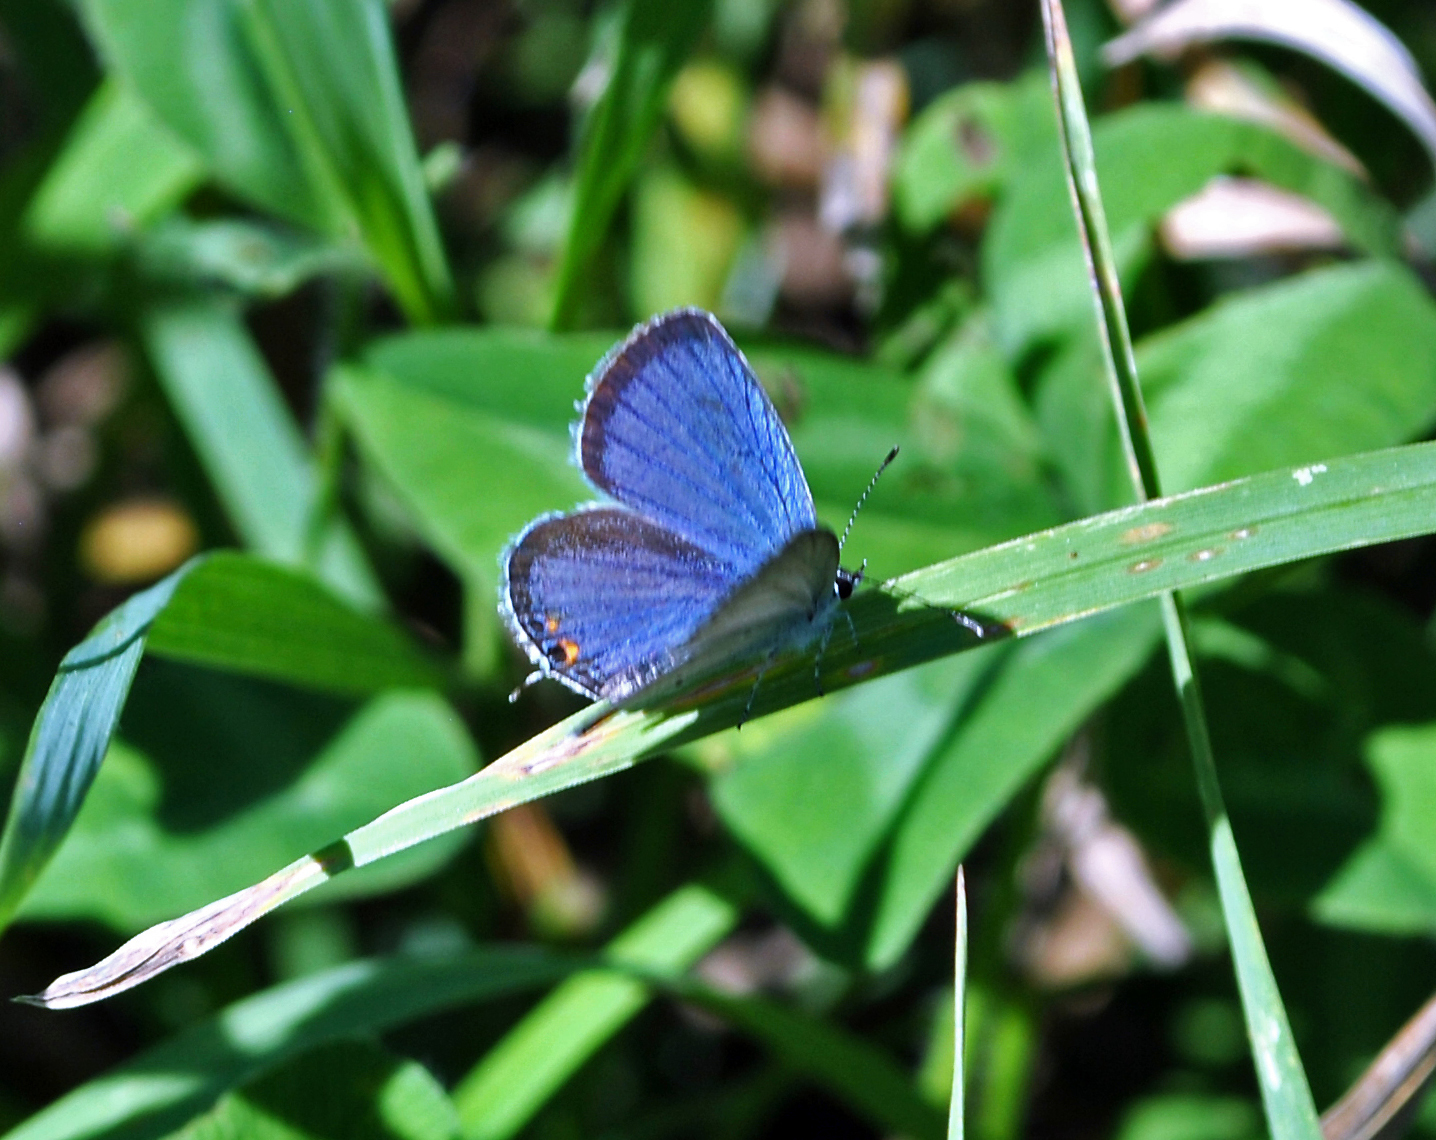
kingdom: Animalia
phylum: Arthropoda
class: Insecta
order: Lepidoptera
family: Lycaenidae
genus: Elkalyce
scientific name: Elkalyce comyntas
